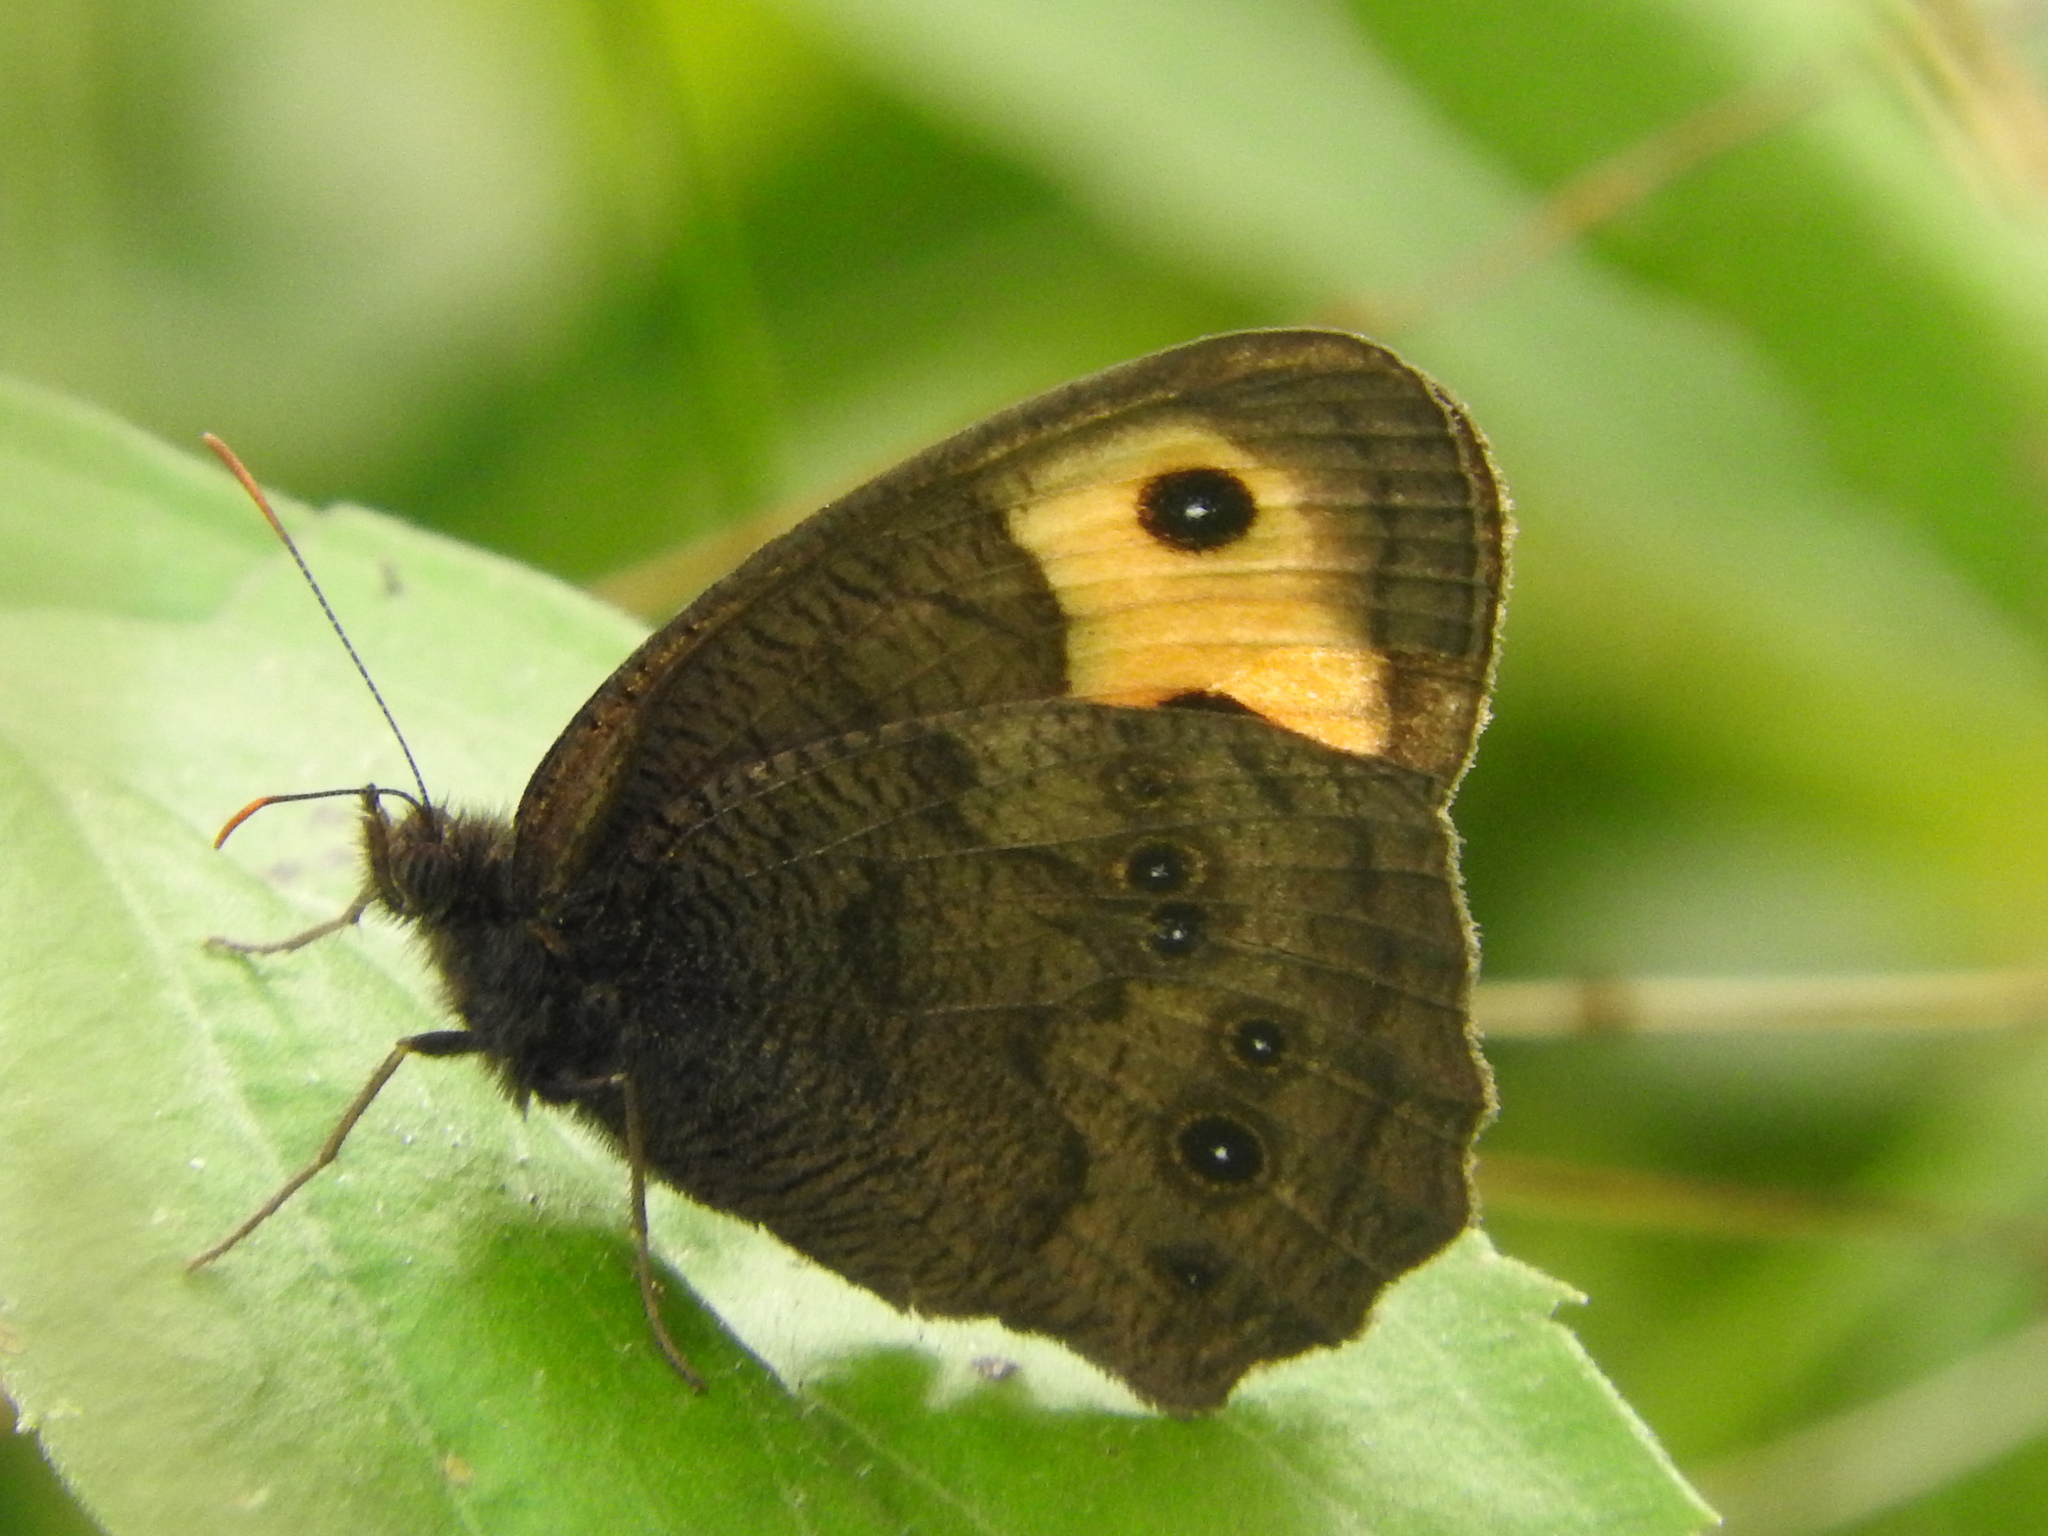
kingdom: Animalia
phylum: Arthropoda
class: Insecta
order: Lepidoptera
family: Nymphalidae
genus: Cercyonis
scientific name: Cercyonis pegala
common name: Common wood-nymph
